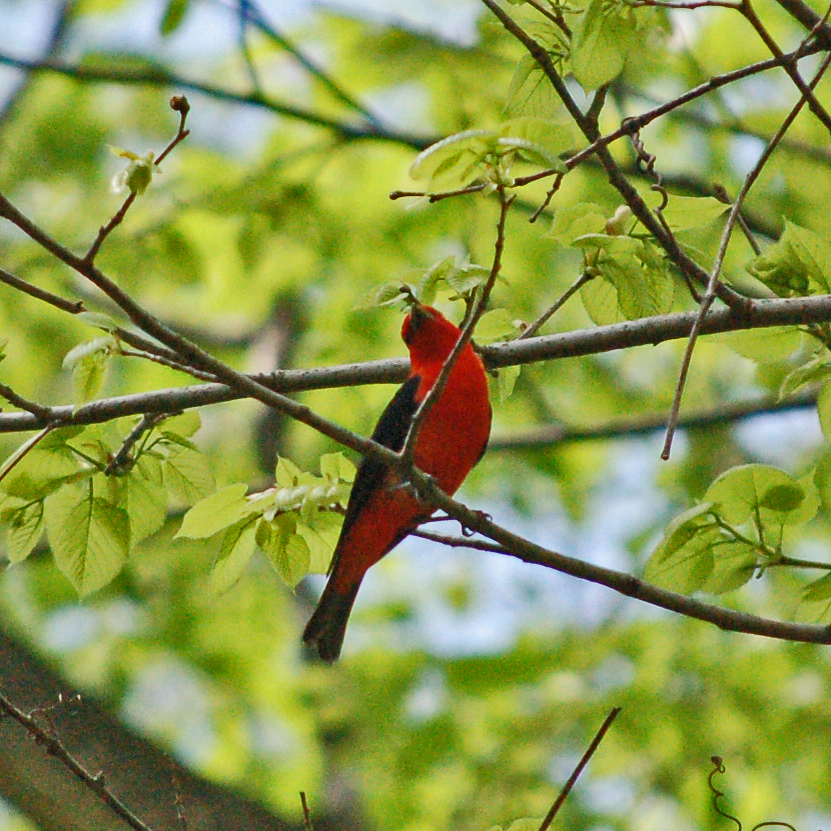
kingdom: Animalia
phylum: Chordata
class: Aves
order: Passeriformes
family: Cardinalidae
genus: Piranga
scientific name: Piranga olivacea
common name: Scarlet tanager
